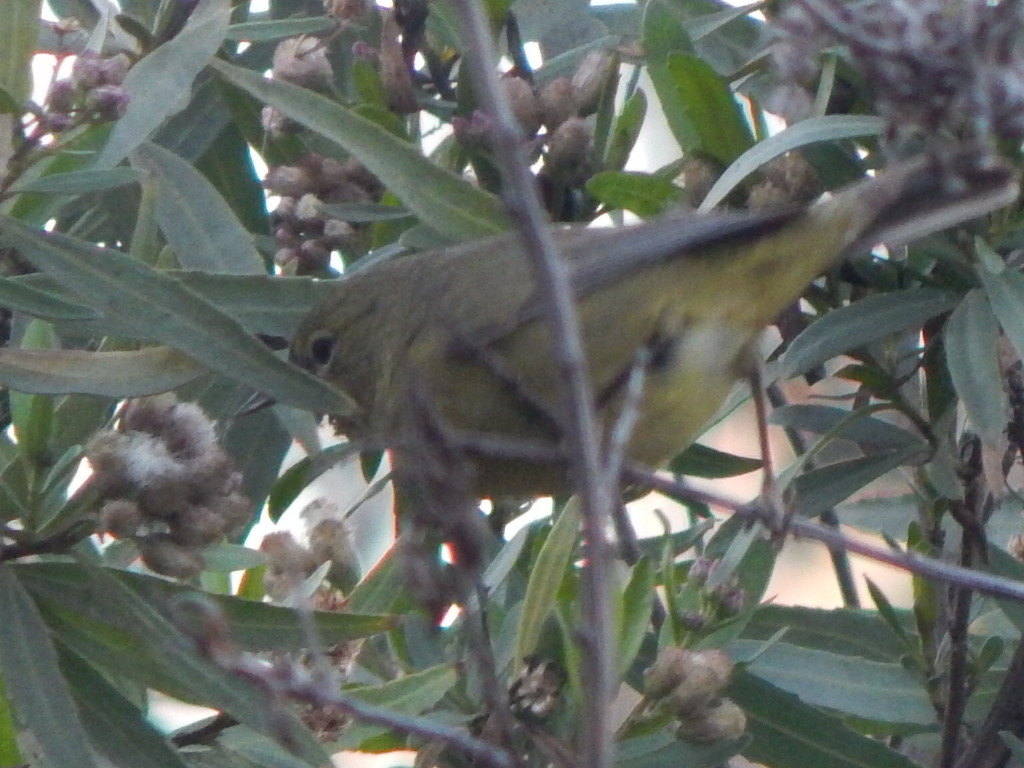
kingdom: Animalia
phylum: Chordata
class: Aves
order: Passeriformes
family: Parulidae
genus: Leiothlypis
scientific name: Leiothlypis celata
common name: Orange-crowned warbler
